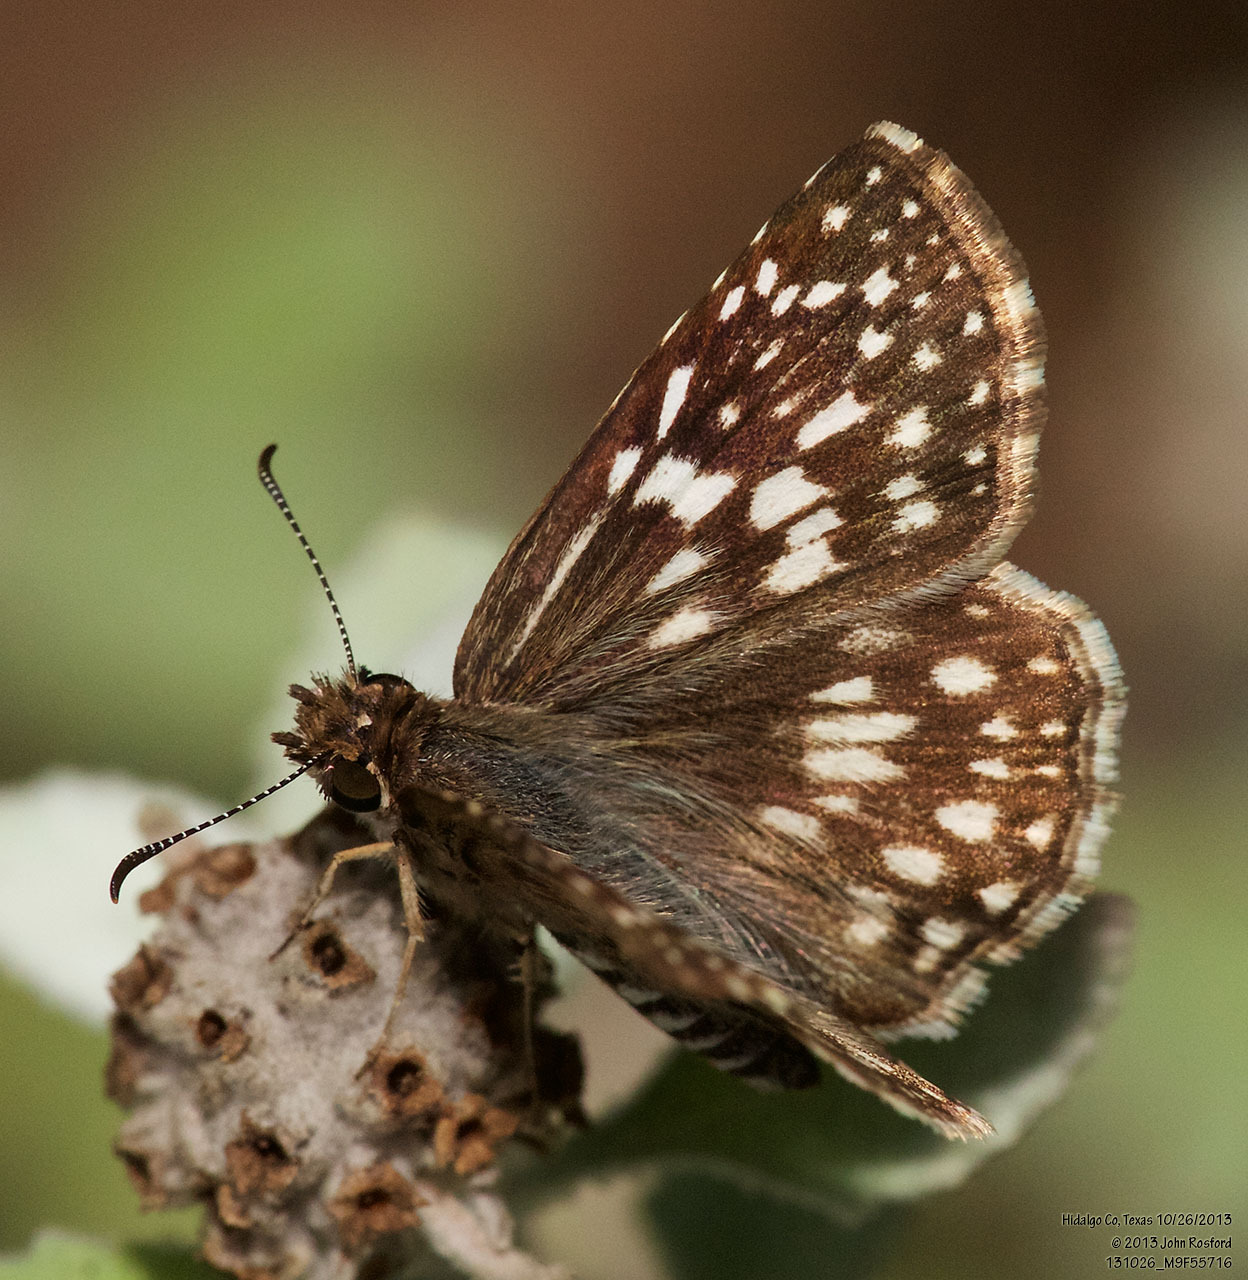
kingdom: Animalia
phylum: Arthropoda
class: Insecta
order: Lepidoptera
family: Hesperiidae
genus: Pyrgus
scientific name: Pyrgus oileus
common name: Tropical checkered-skipper
